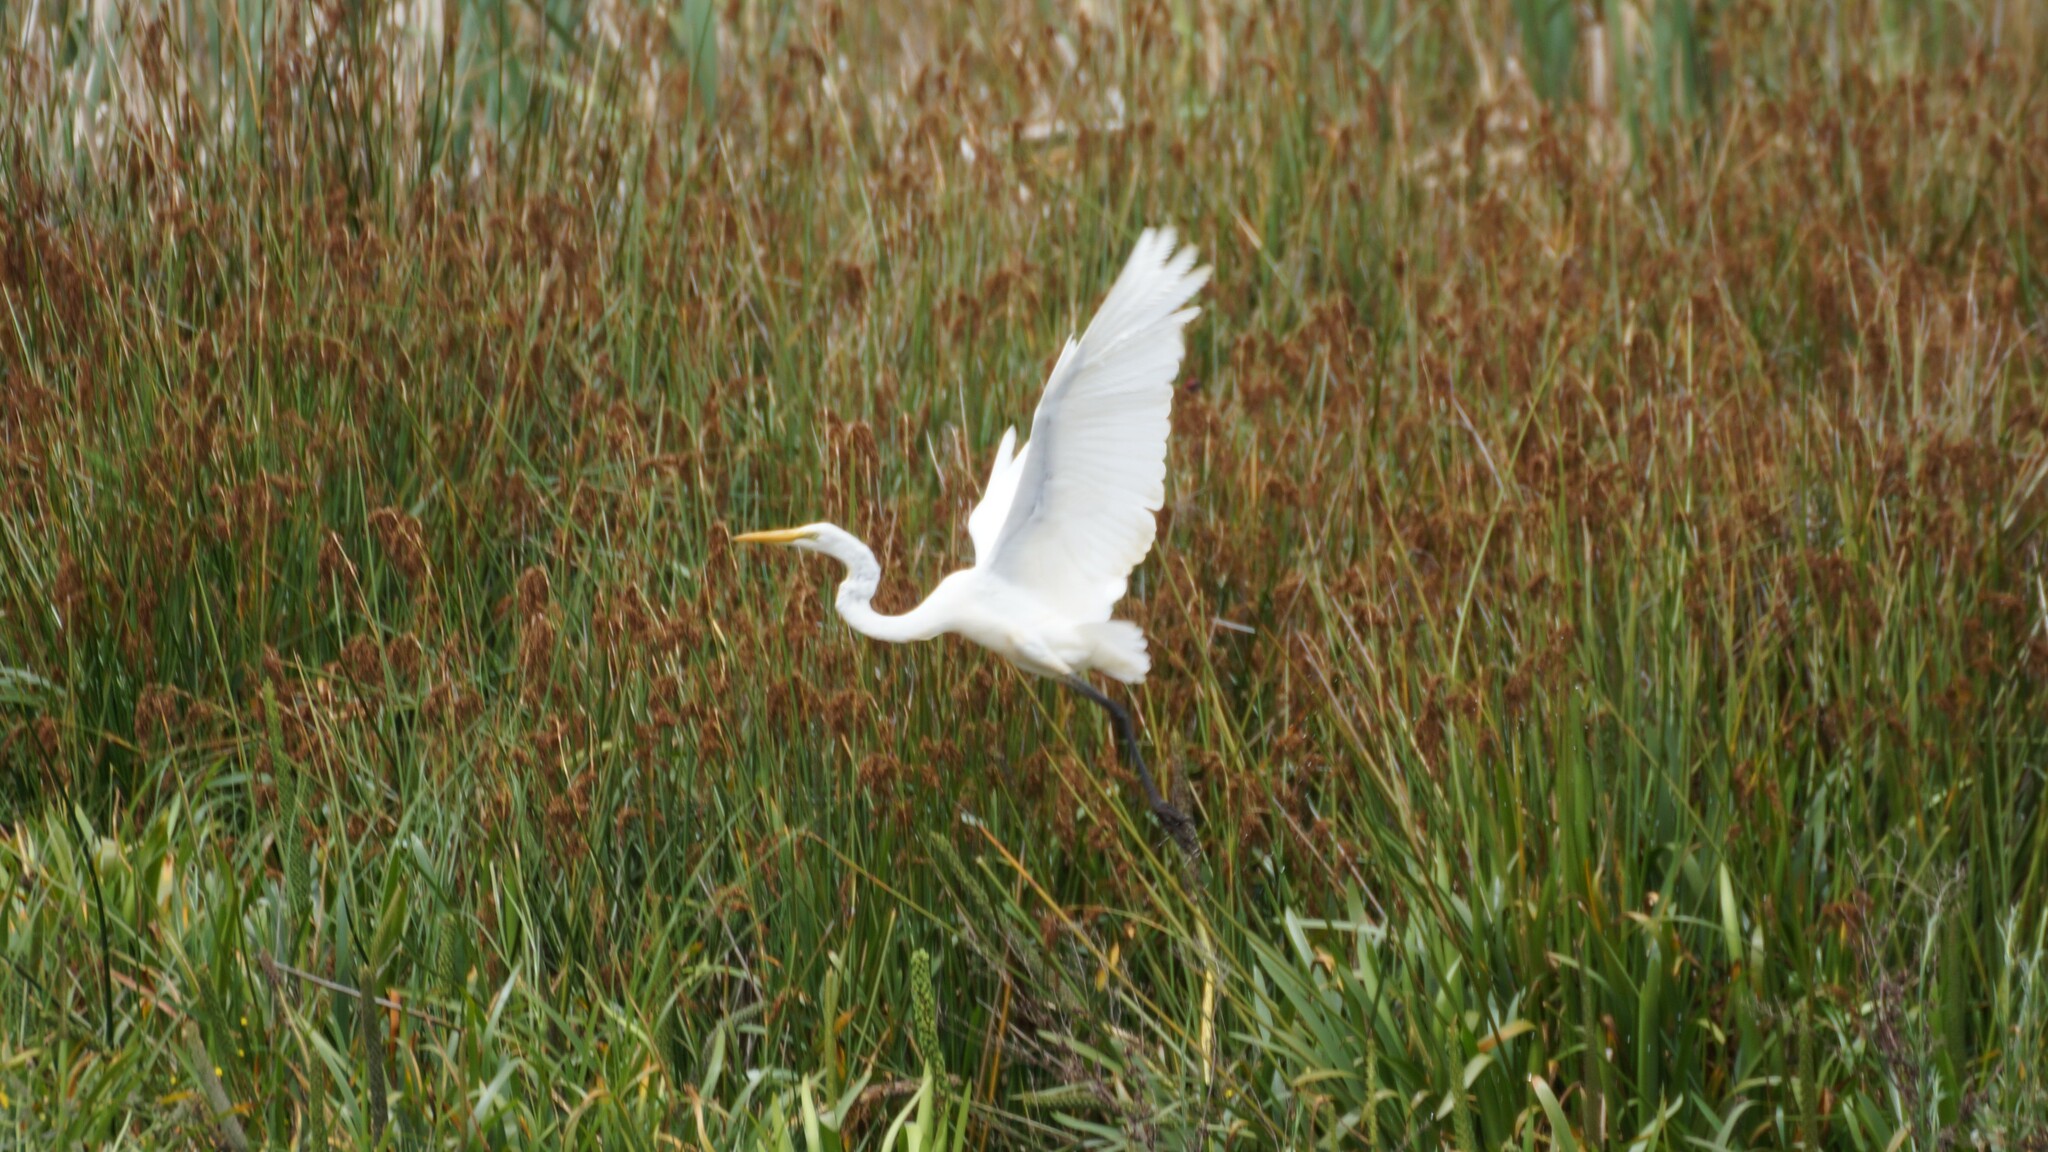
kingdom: Animalia
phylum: Chordata
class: Aves
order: Pelecaniformes
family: Ardeidae
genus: Ardea
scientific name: Ardea alba
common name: Great egret
